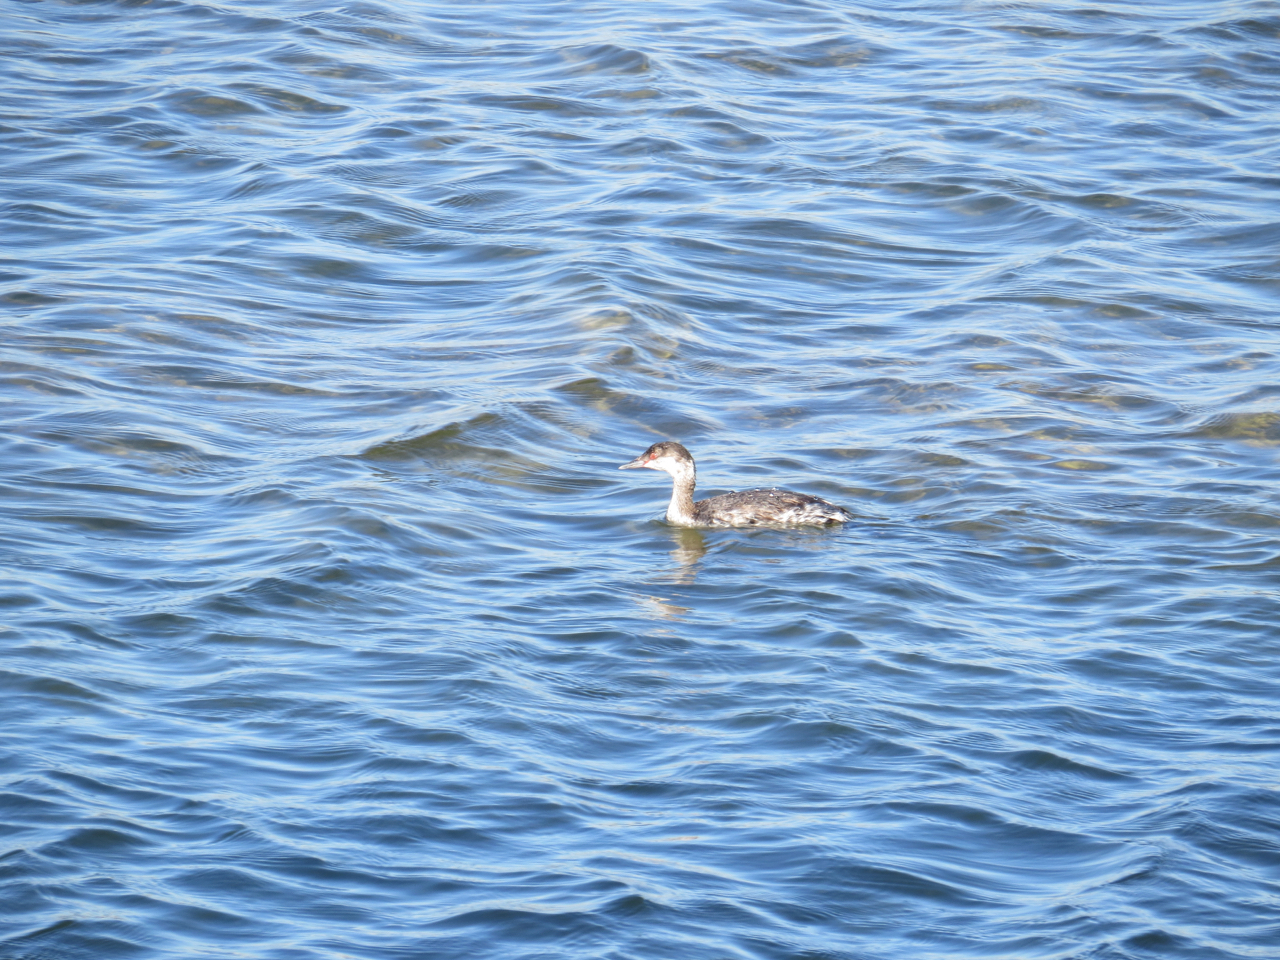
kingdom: Animalia
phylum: Chordata
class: Aves
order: Podicipediformes
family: Podicipedidae
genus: Podiceps
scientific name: Podiceps auritus
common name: Horned grebe
